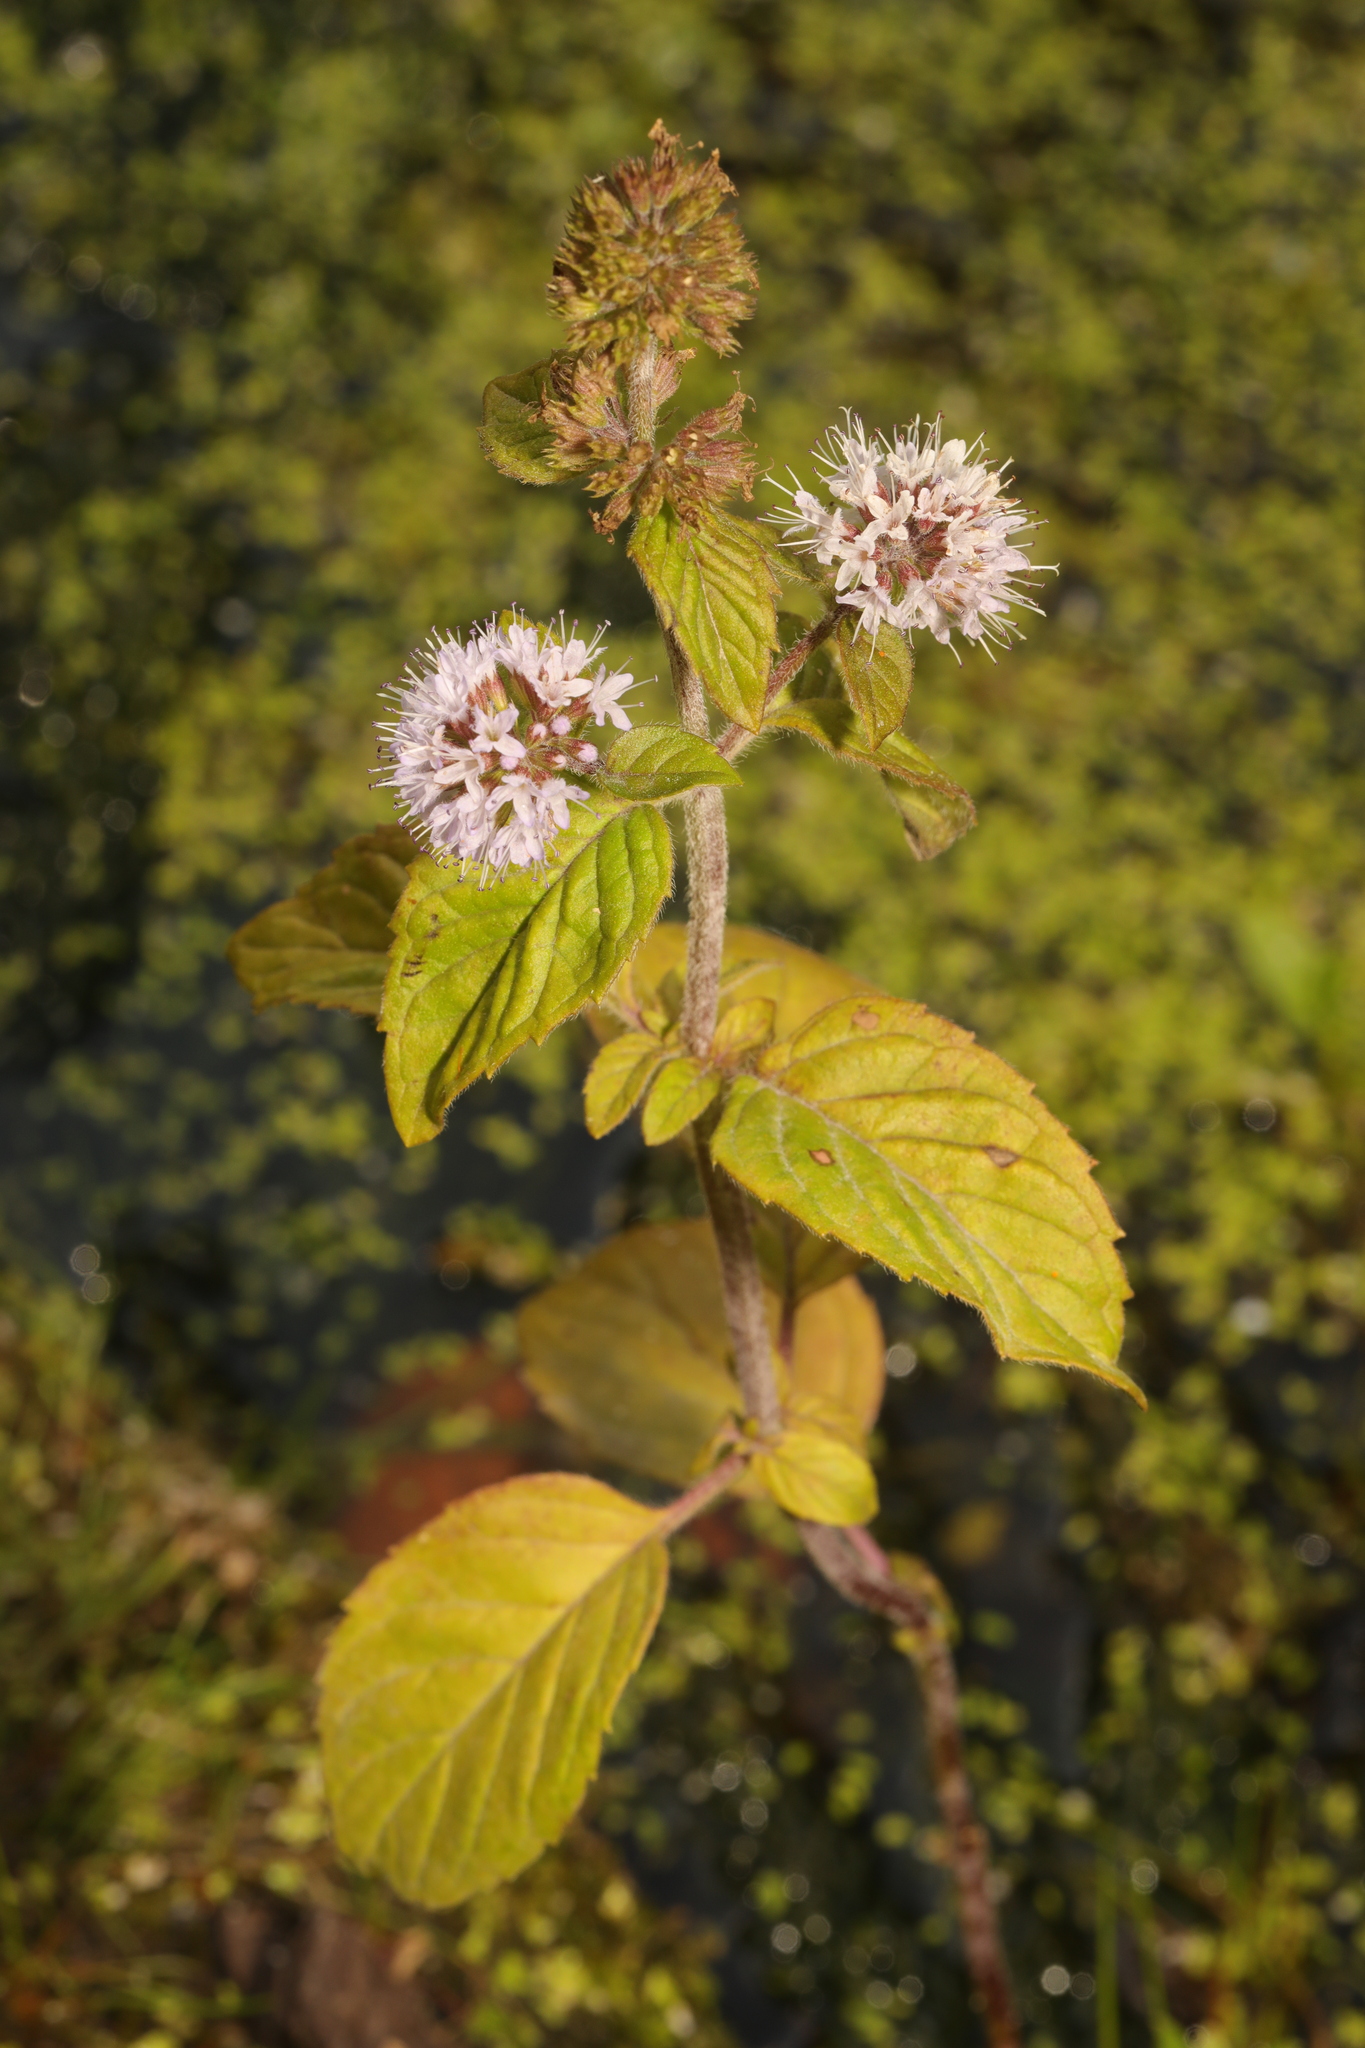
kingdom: Plantae
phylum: Tracheophyta
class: Magnoliopsida
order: Lamiales
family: Lamiaceae
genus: Mentha
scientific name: Mentha aquatica
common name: Water mint
